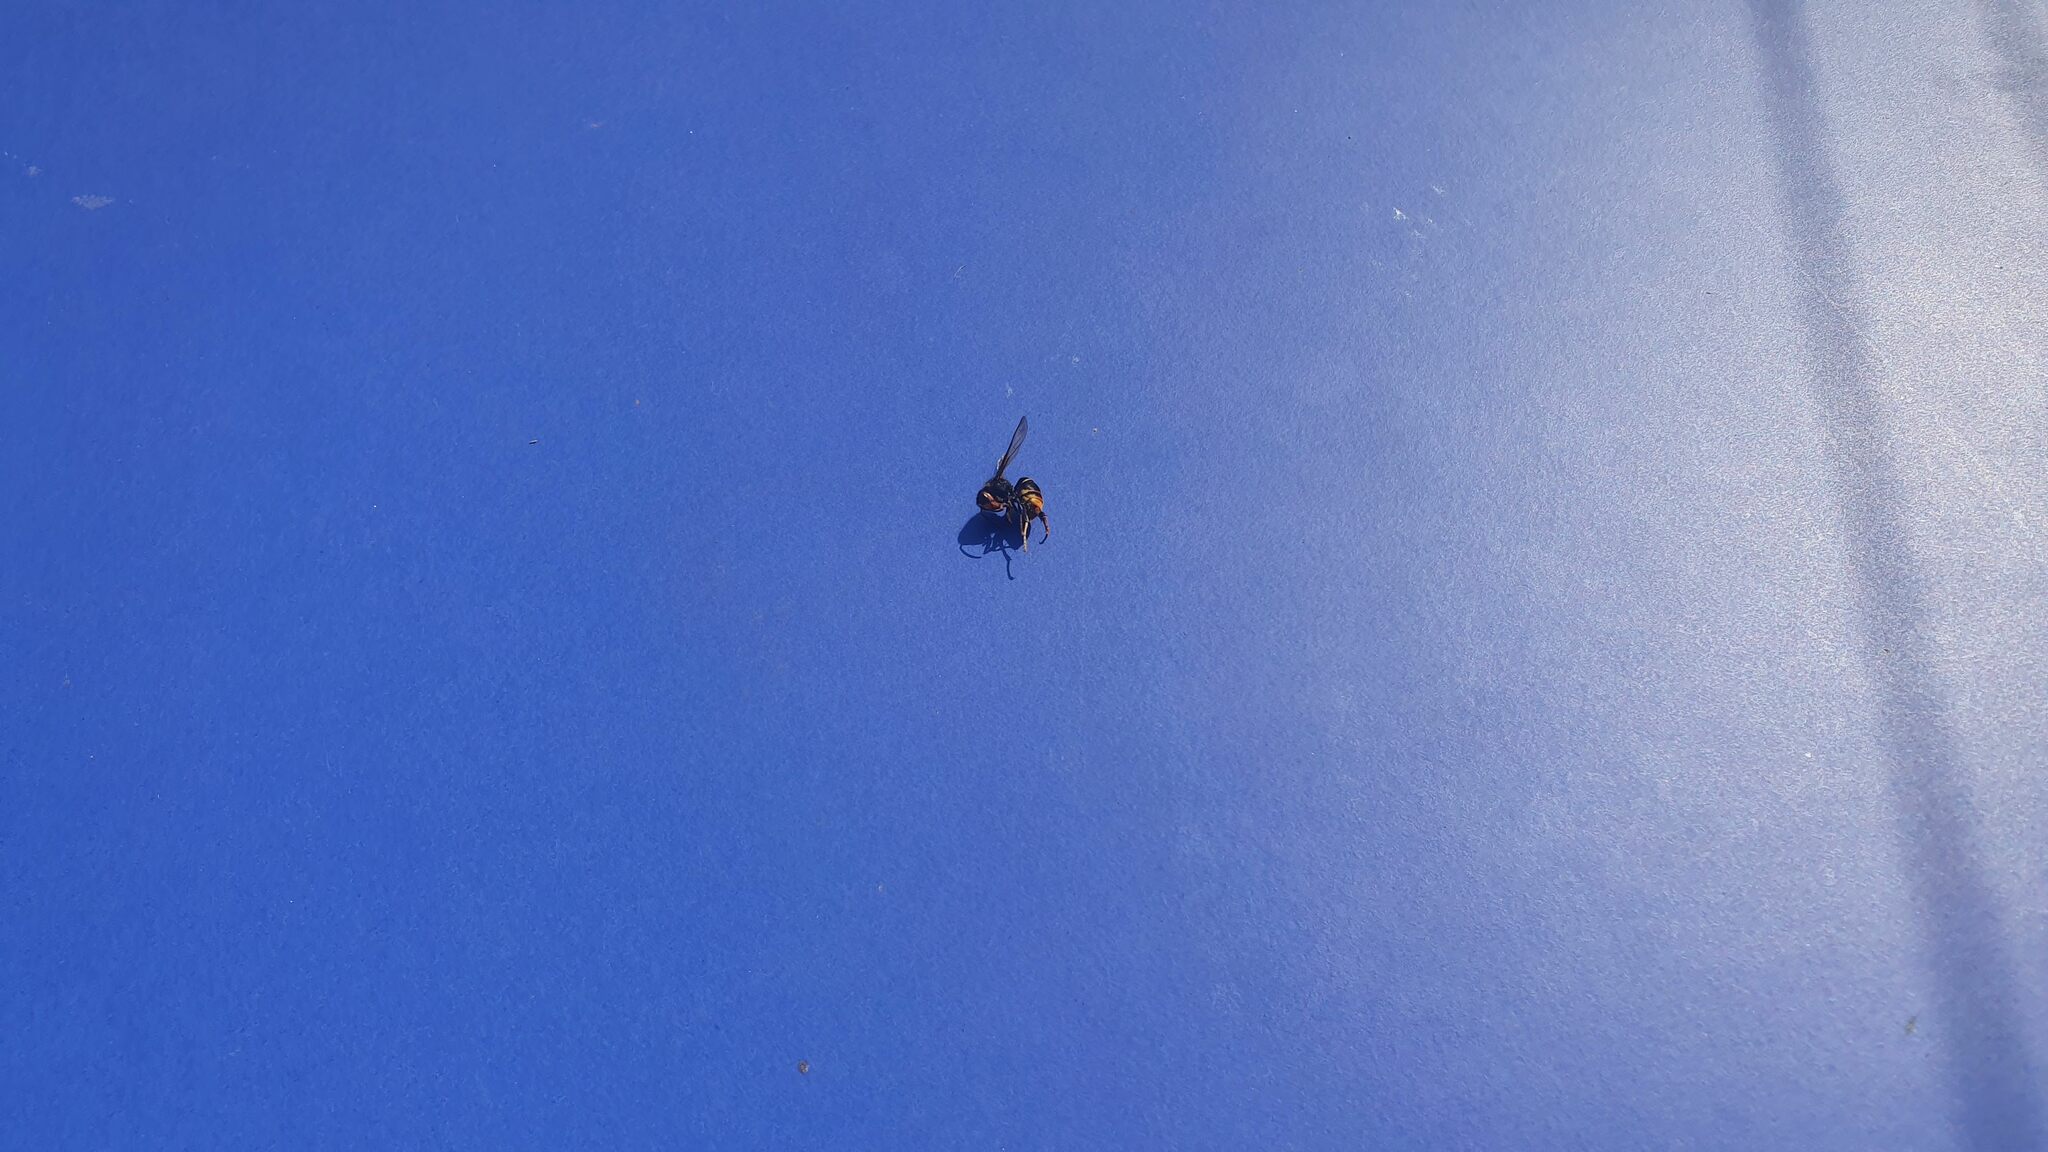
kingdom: Animalia
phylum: Arthropoda
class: Insecta
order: Hymenoptera
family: Vespidae
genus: Vespa
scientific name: Vespa velutina
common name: Asian hornet
